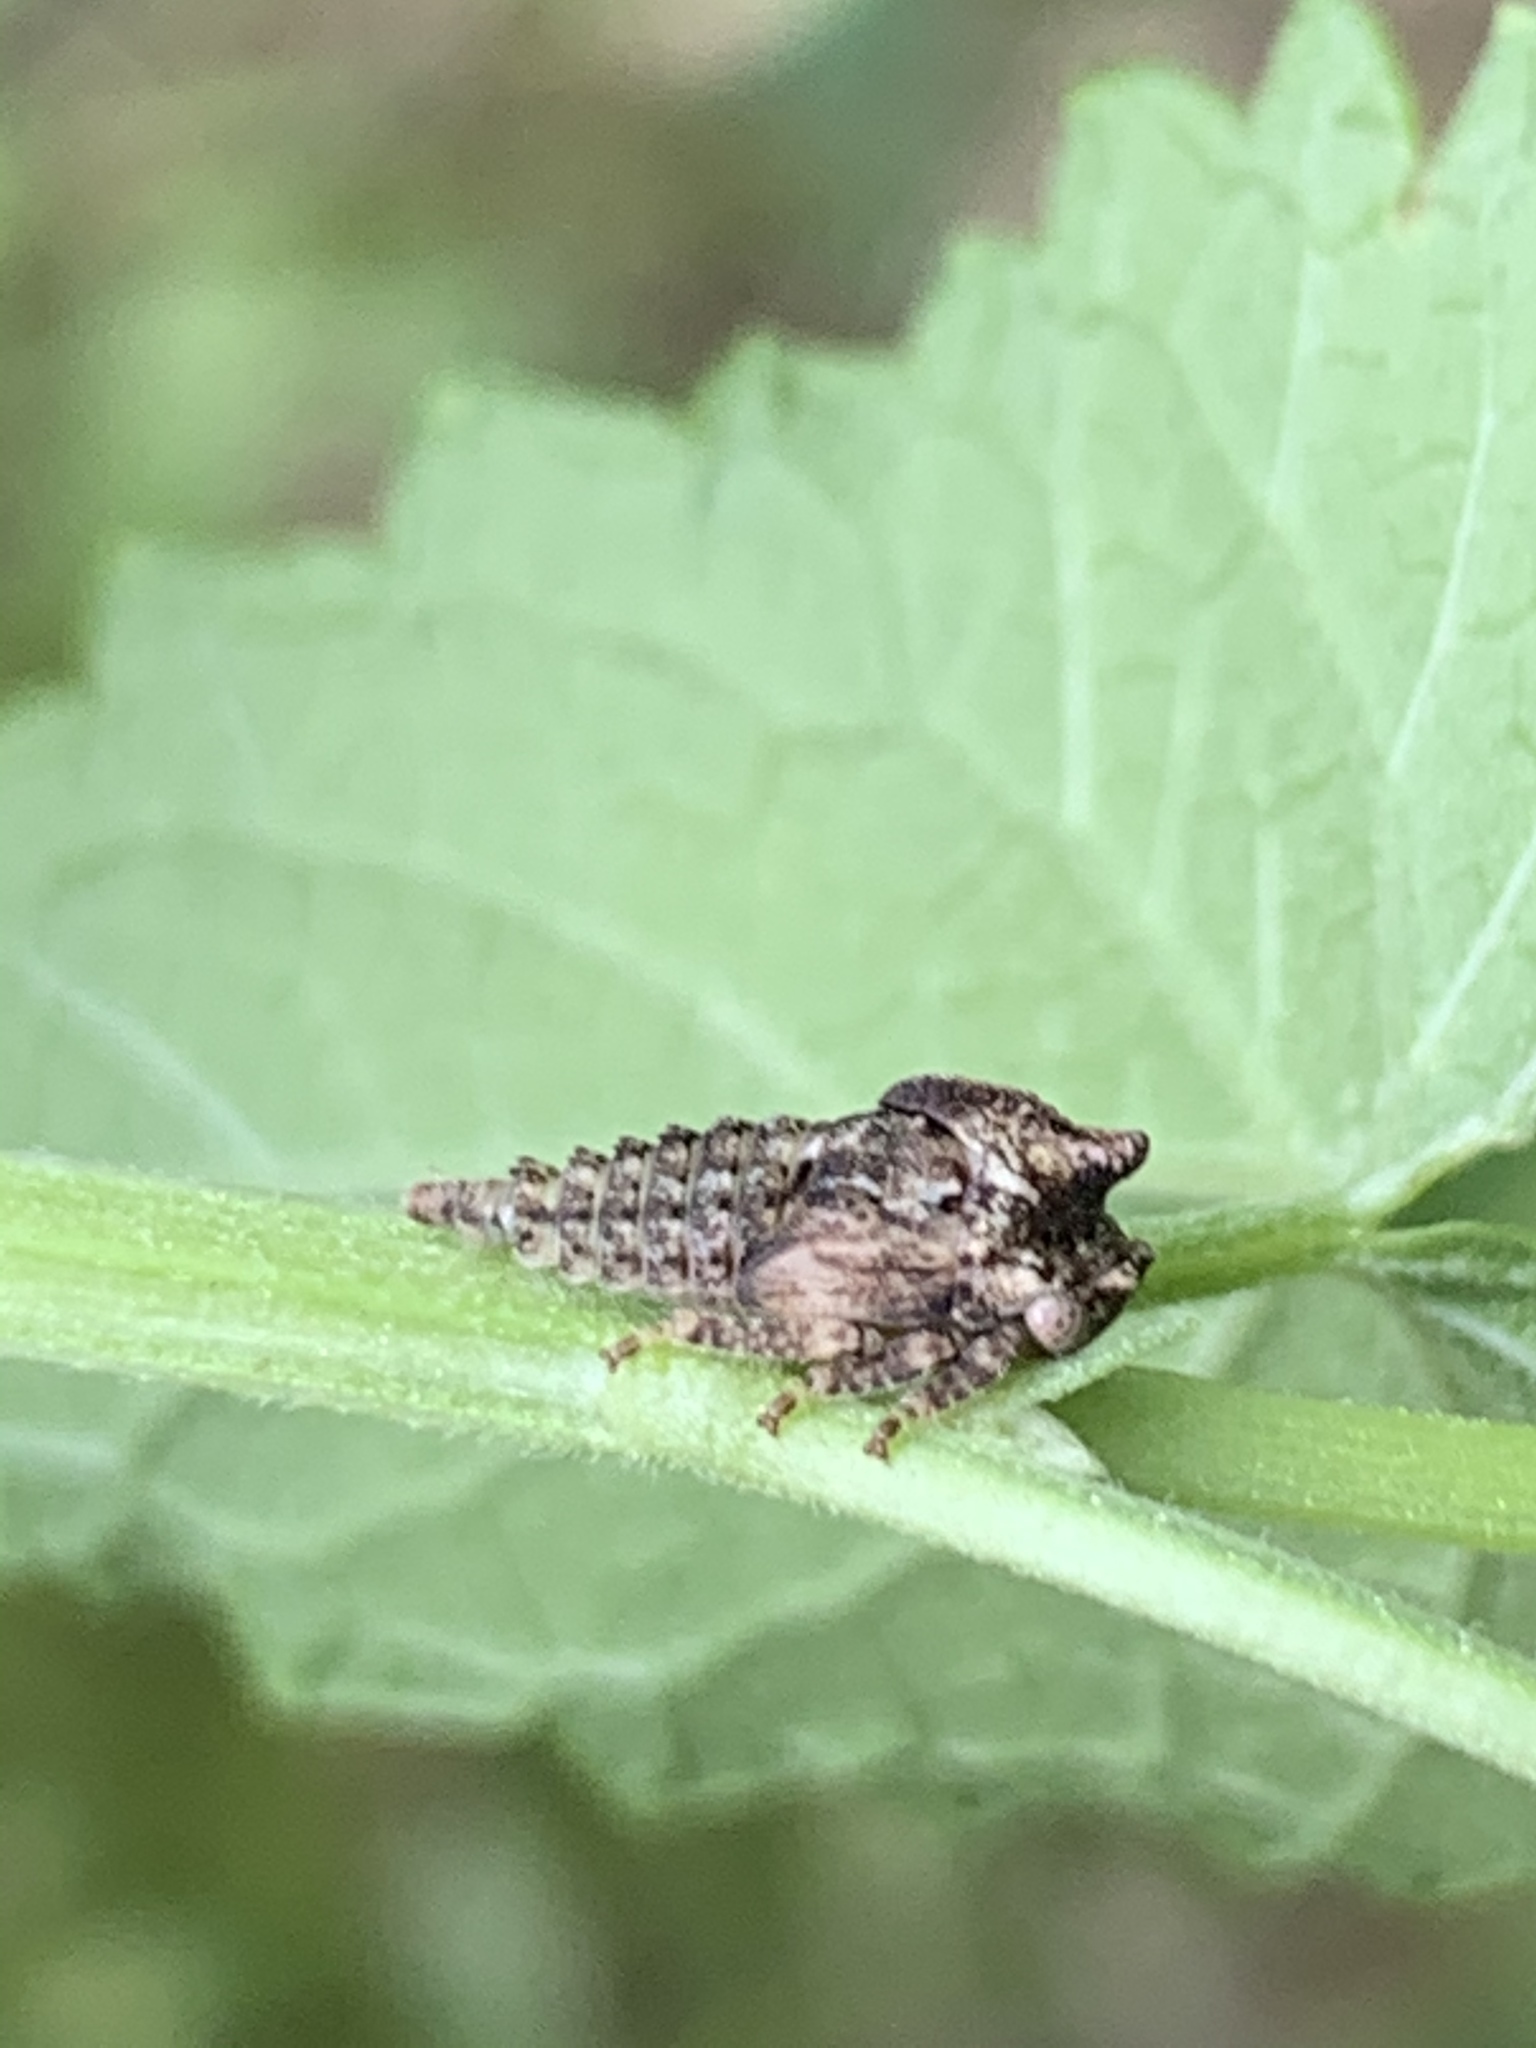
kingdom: Animalia
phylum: Arthropoda
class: Insecta
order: Hemiptera
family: Membracidae
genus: Thelia
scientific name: Thelia bimaculata
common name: Locust treehopper
